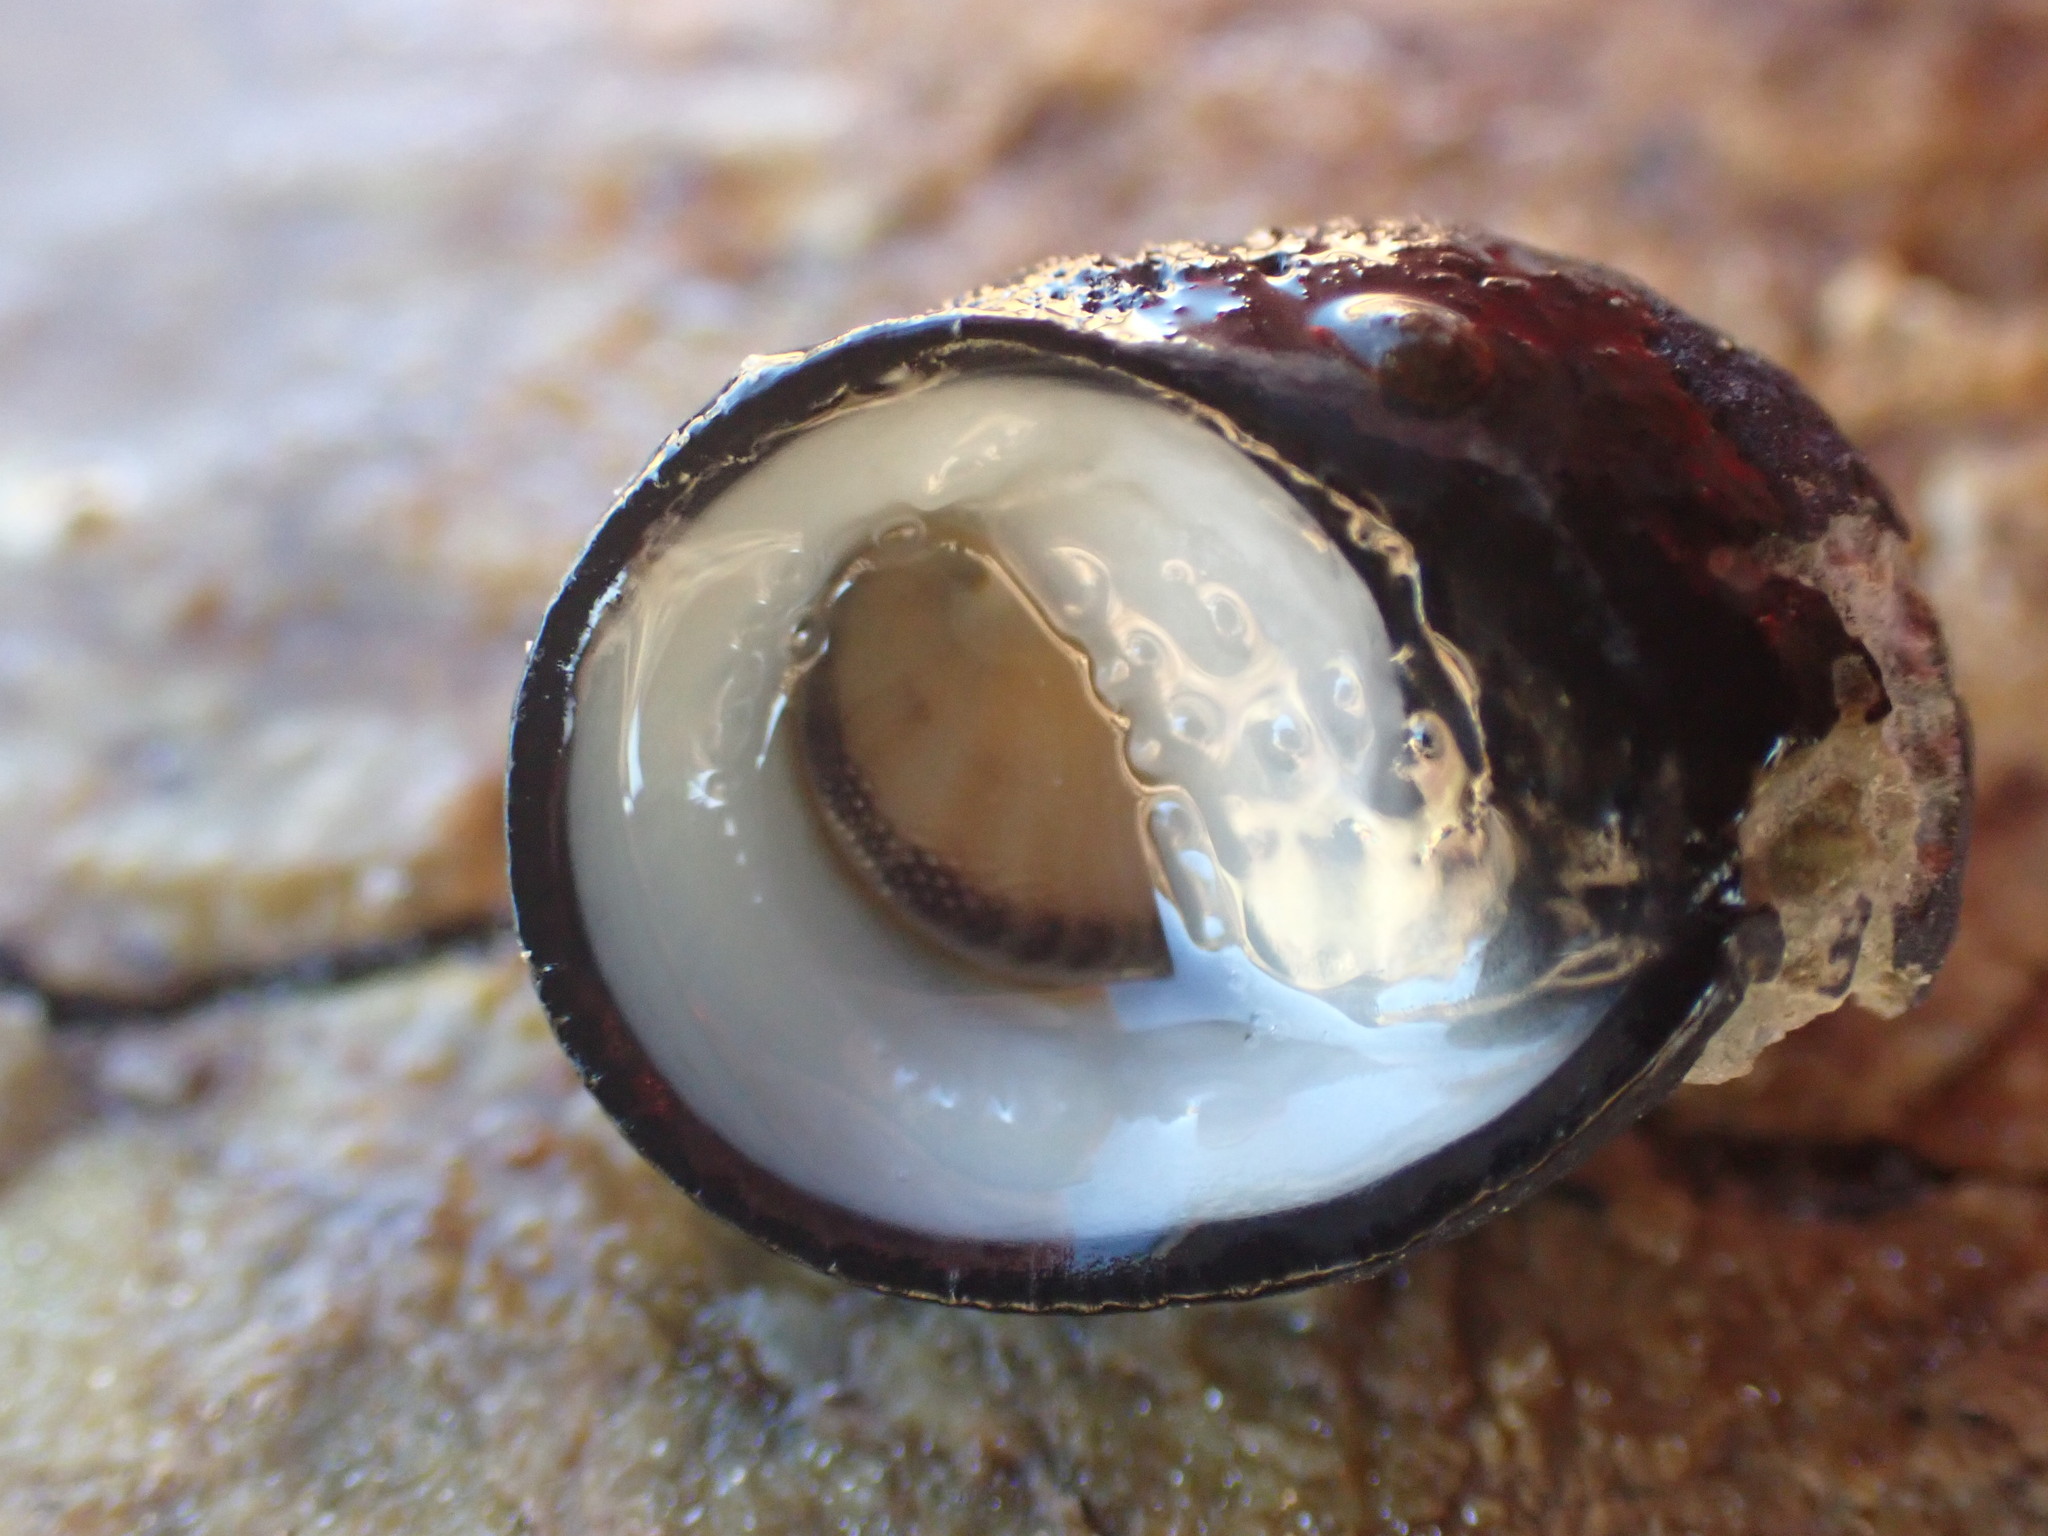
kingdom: Animalia
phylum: Mollusca
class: Gastropoda
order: Cycloneritida
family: Neritidae
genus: Nerita
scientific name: Nerita melanotragus
